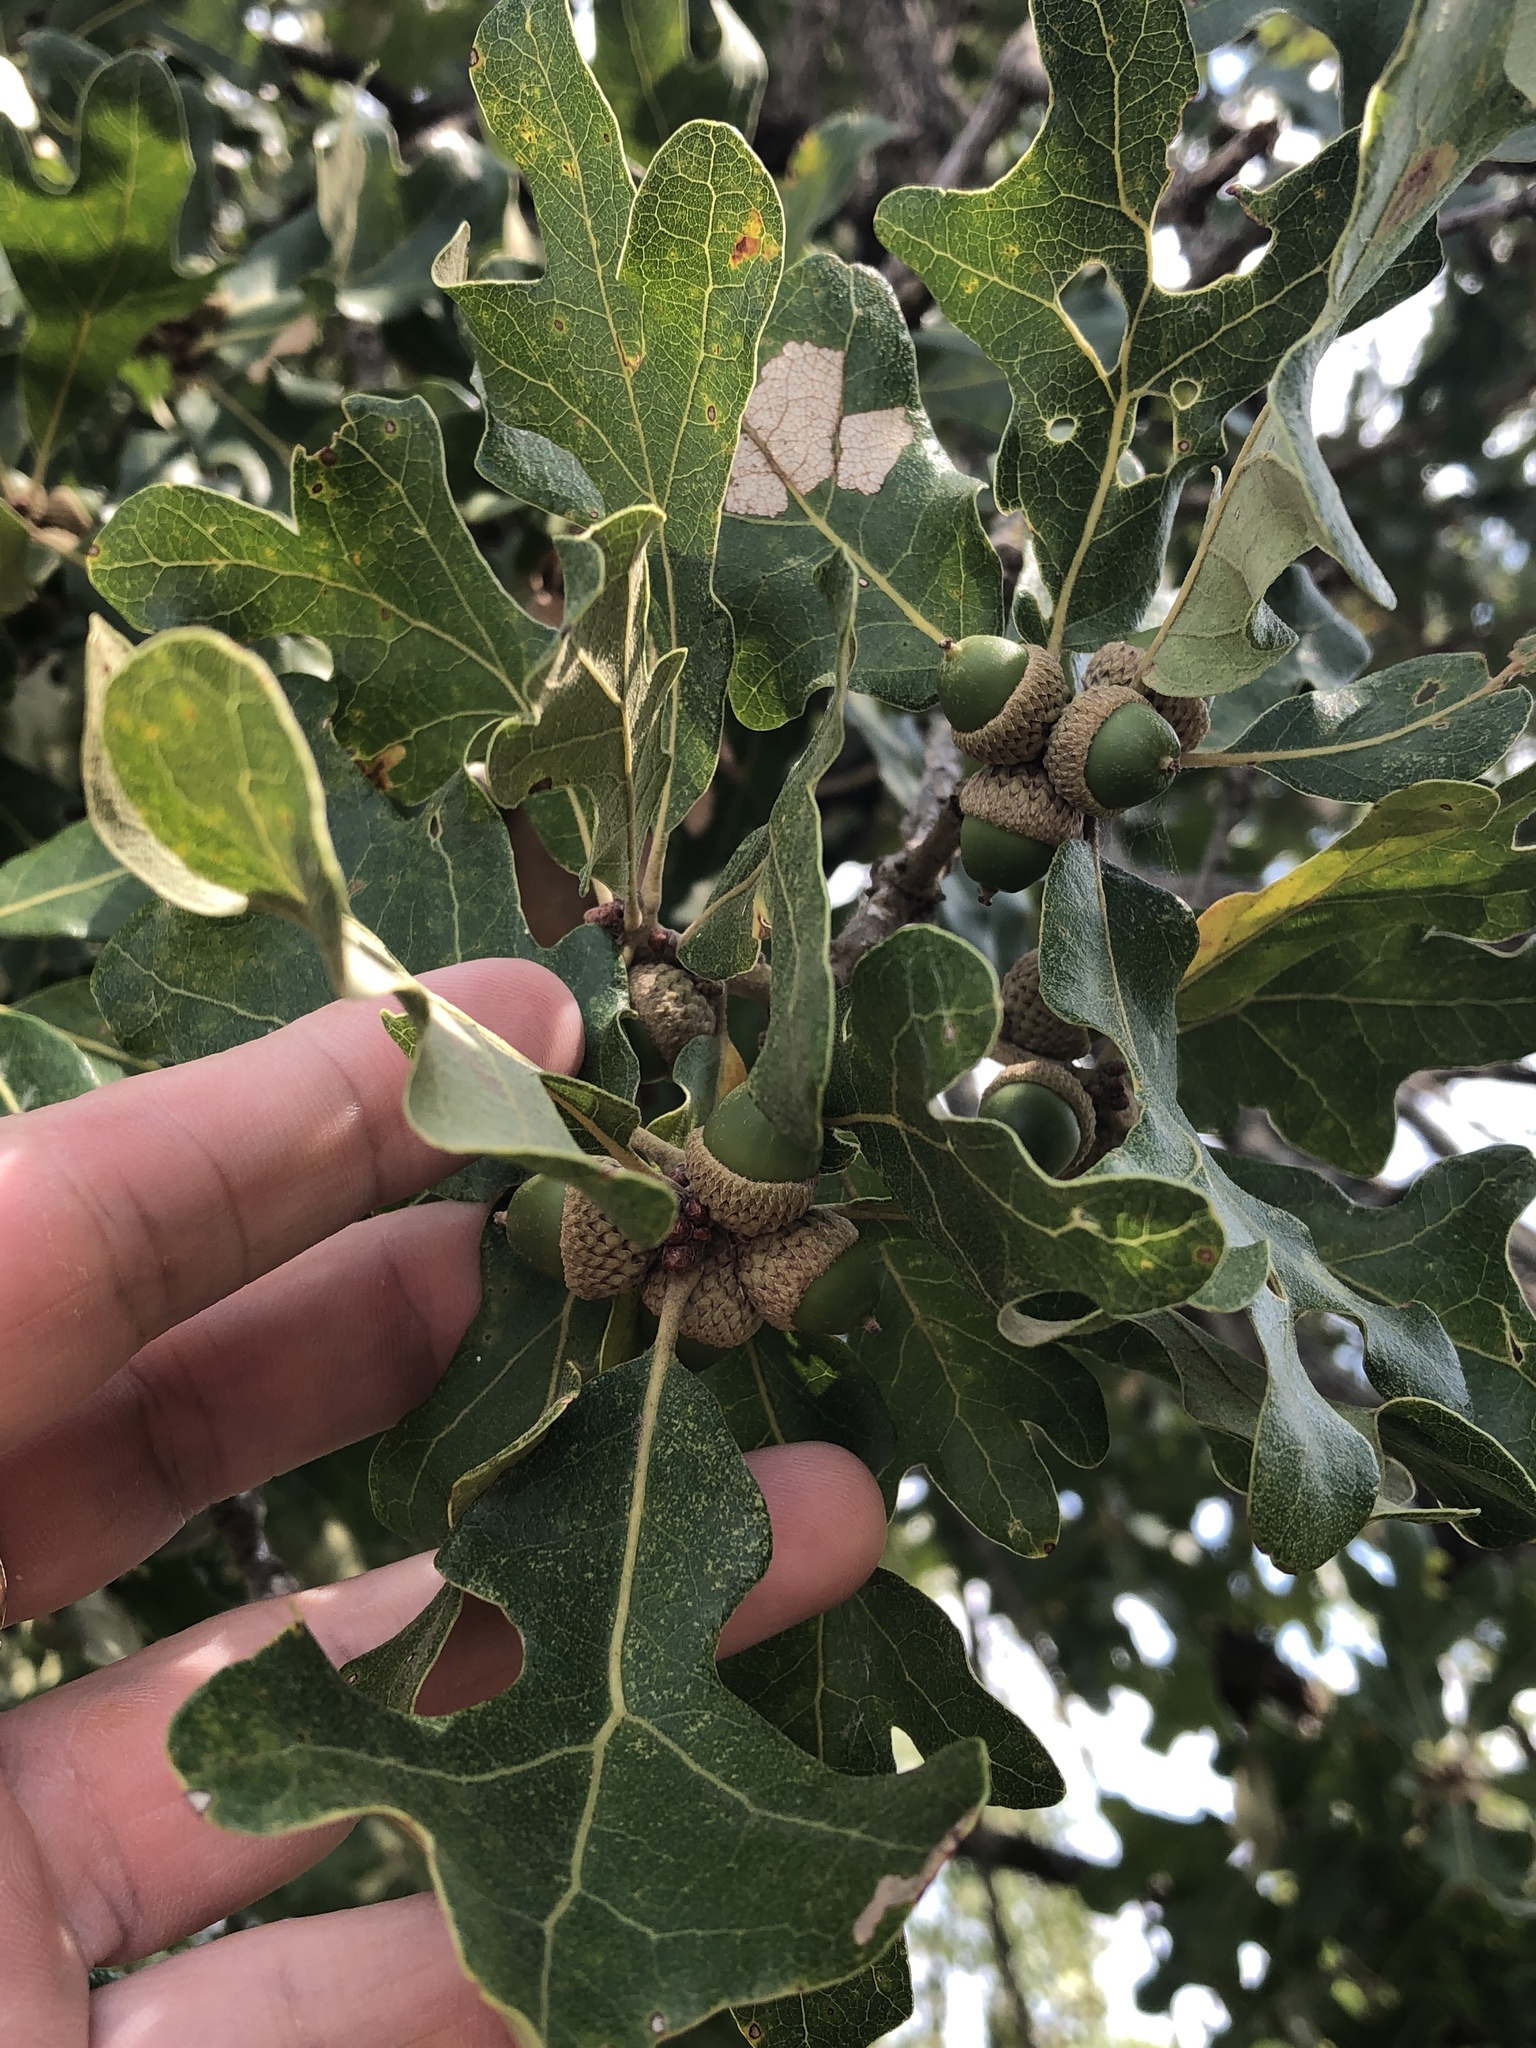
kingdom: Plantae
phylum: Tracheophyta
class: Magnoliopsida
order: Fagales
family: Fagaceae
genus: Quercus
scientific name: Quercus stellata
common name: Post oak
